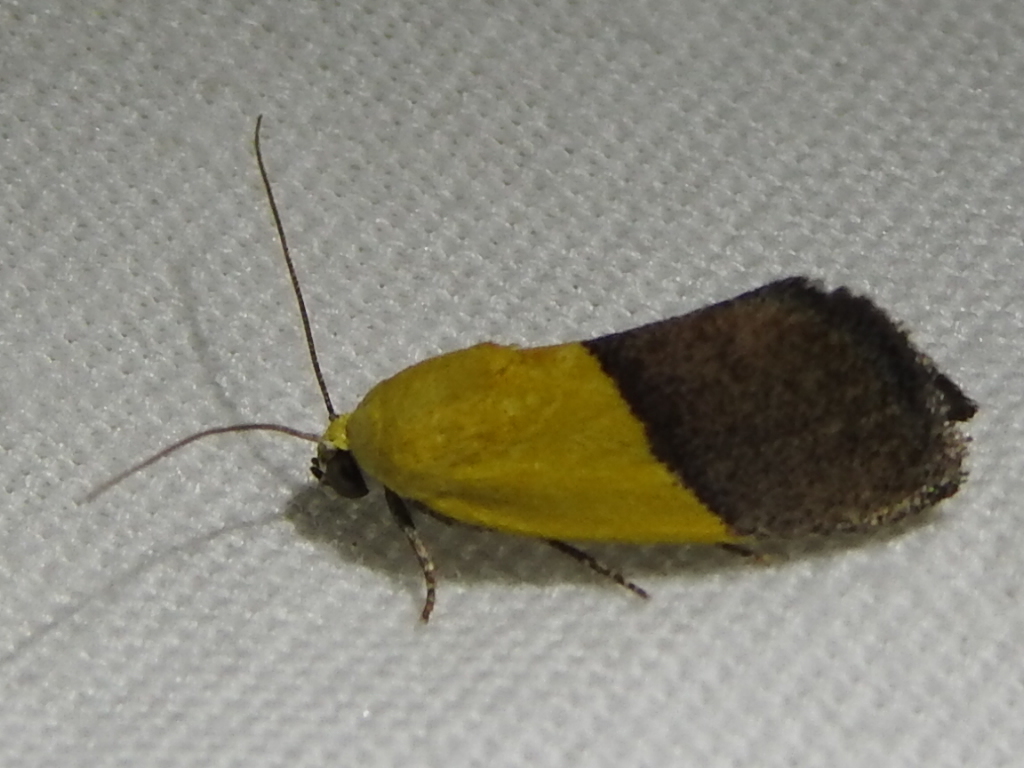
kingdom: Animalia
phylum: Arthropoda
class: Insecta
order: Lepidoptera
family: Noctuidae
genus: Acontia
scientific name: Acontia semiflava
